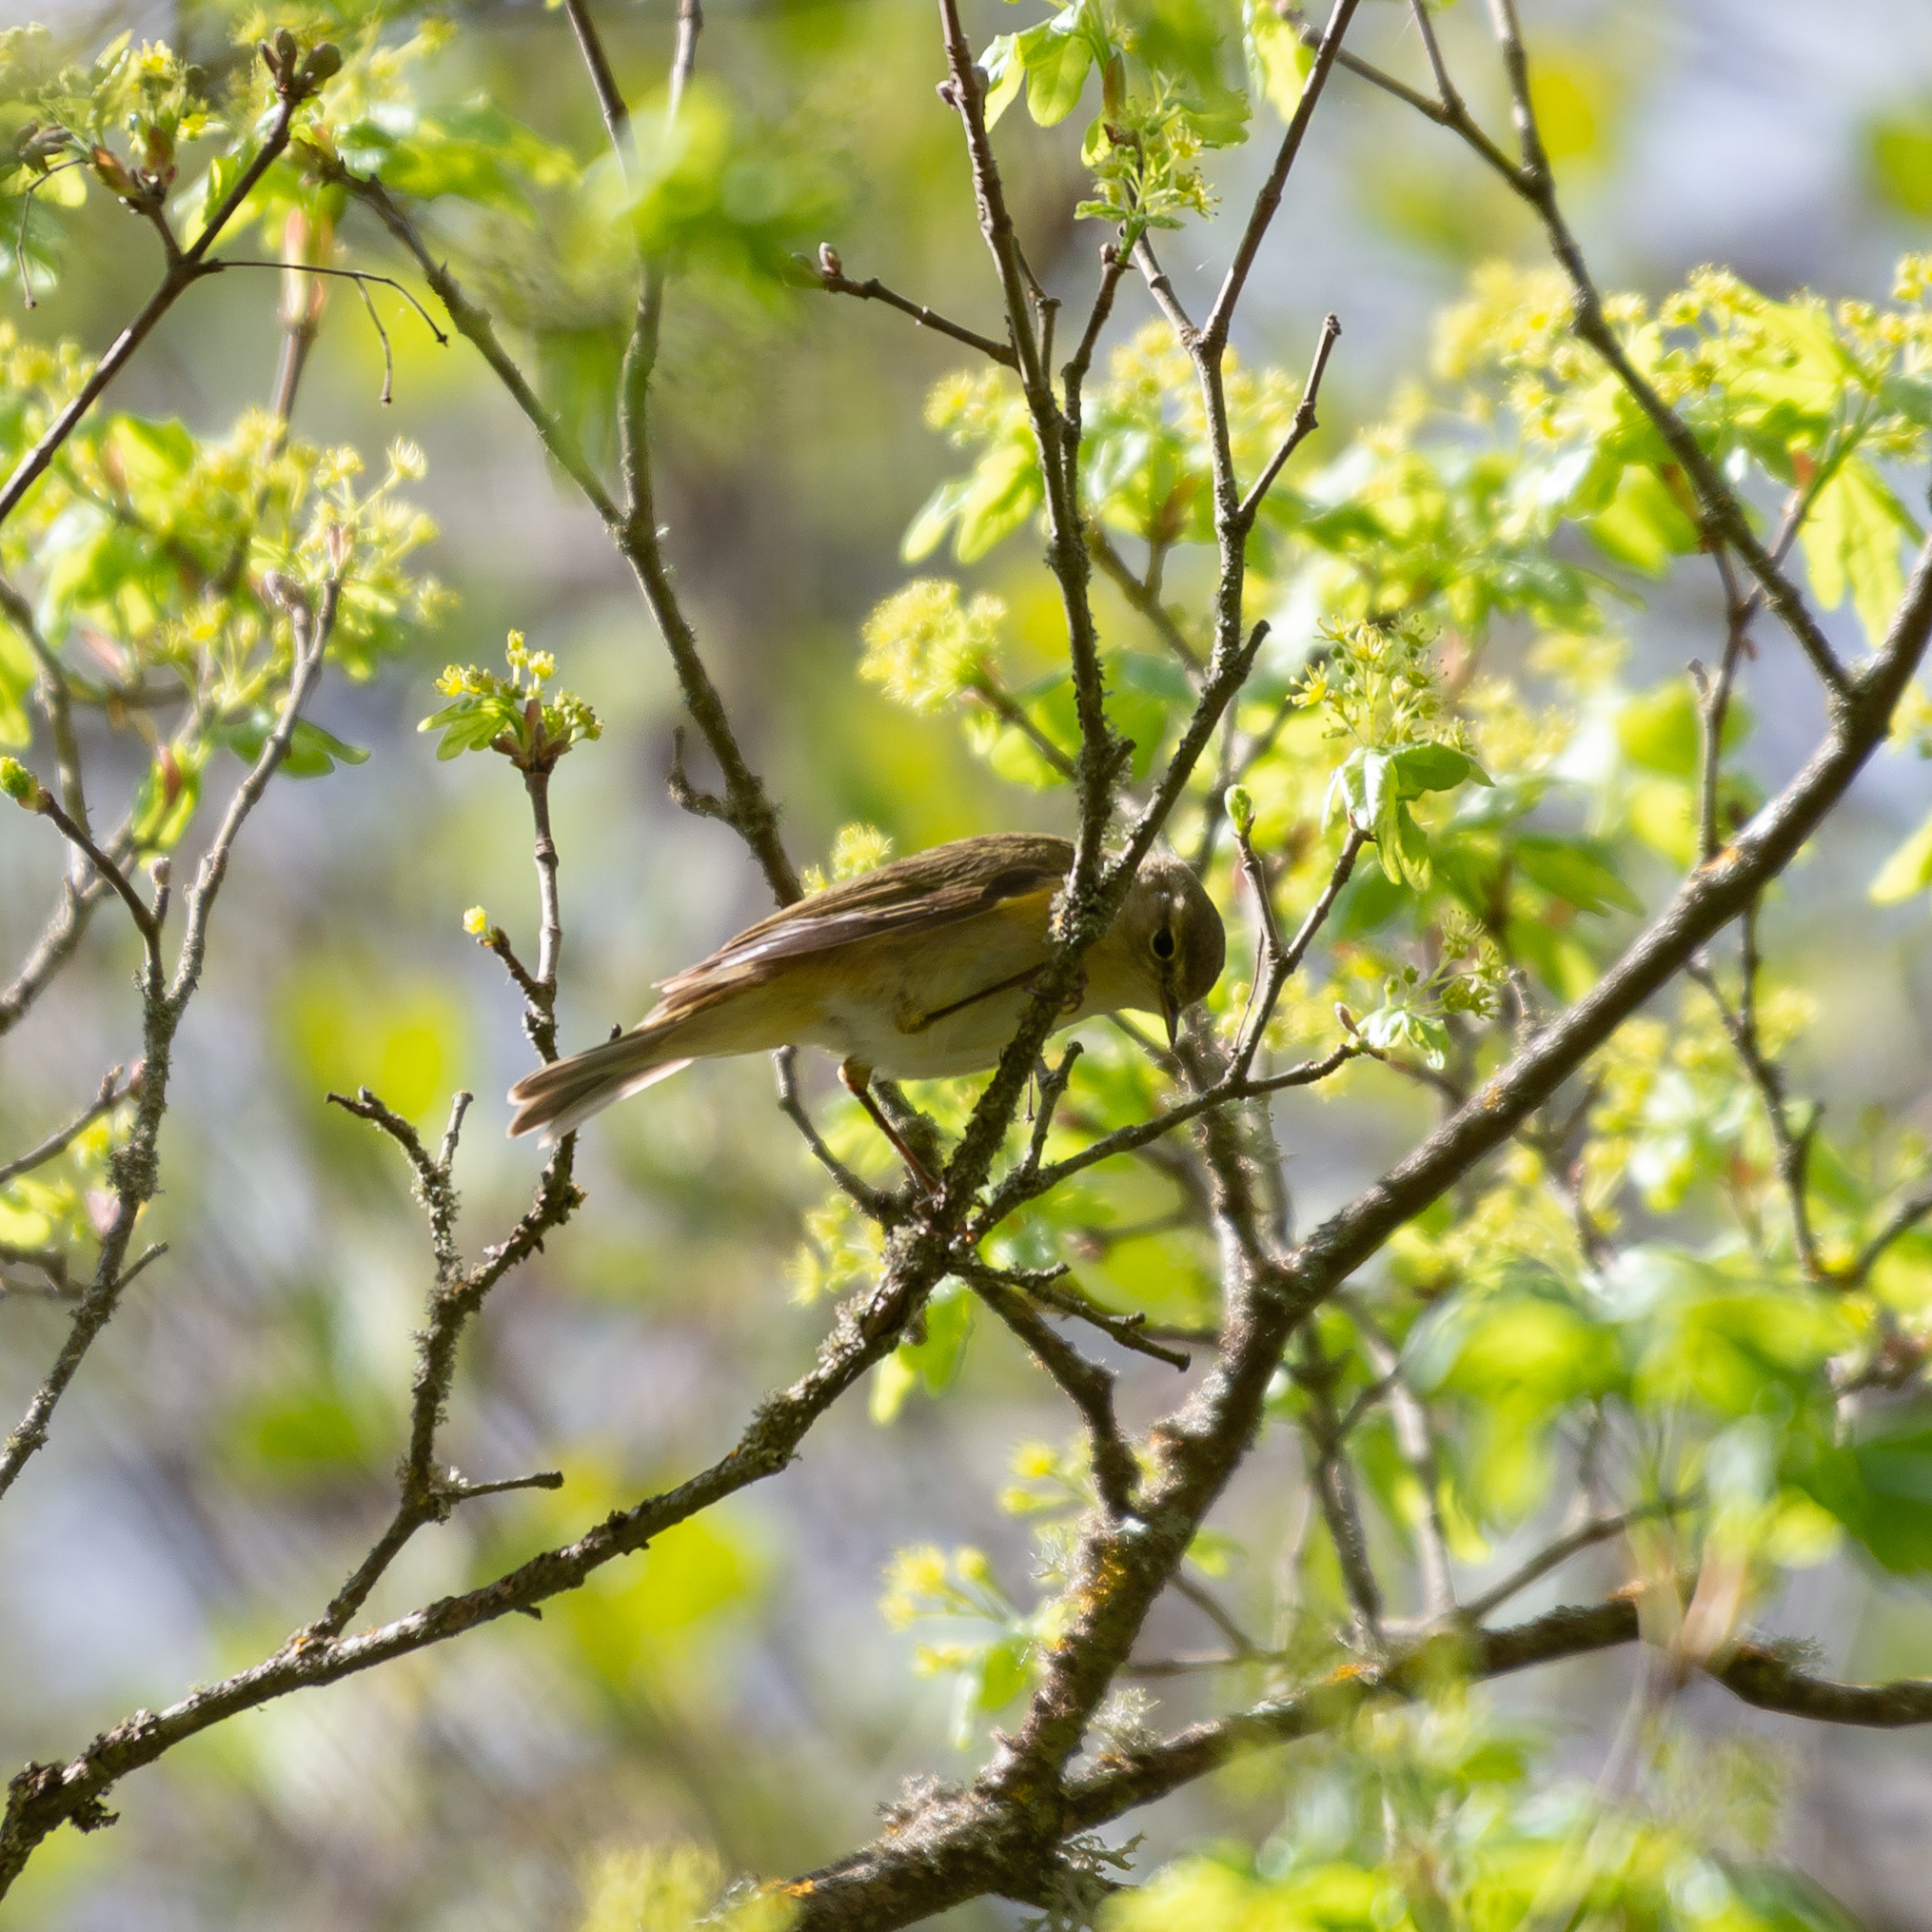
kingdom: Animalia
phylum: Chordata
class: Aves
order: Passeriformes
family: Phylloscopidae
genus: Phylloscopus
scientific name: Phylloscopus ibericus
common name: Iberian chiffchaff
